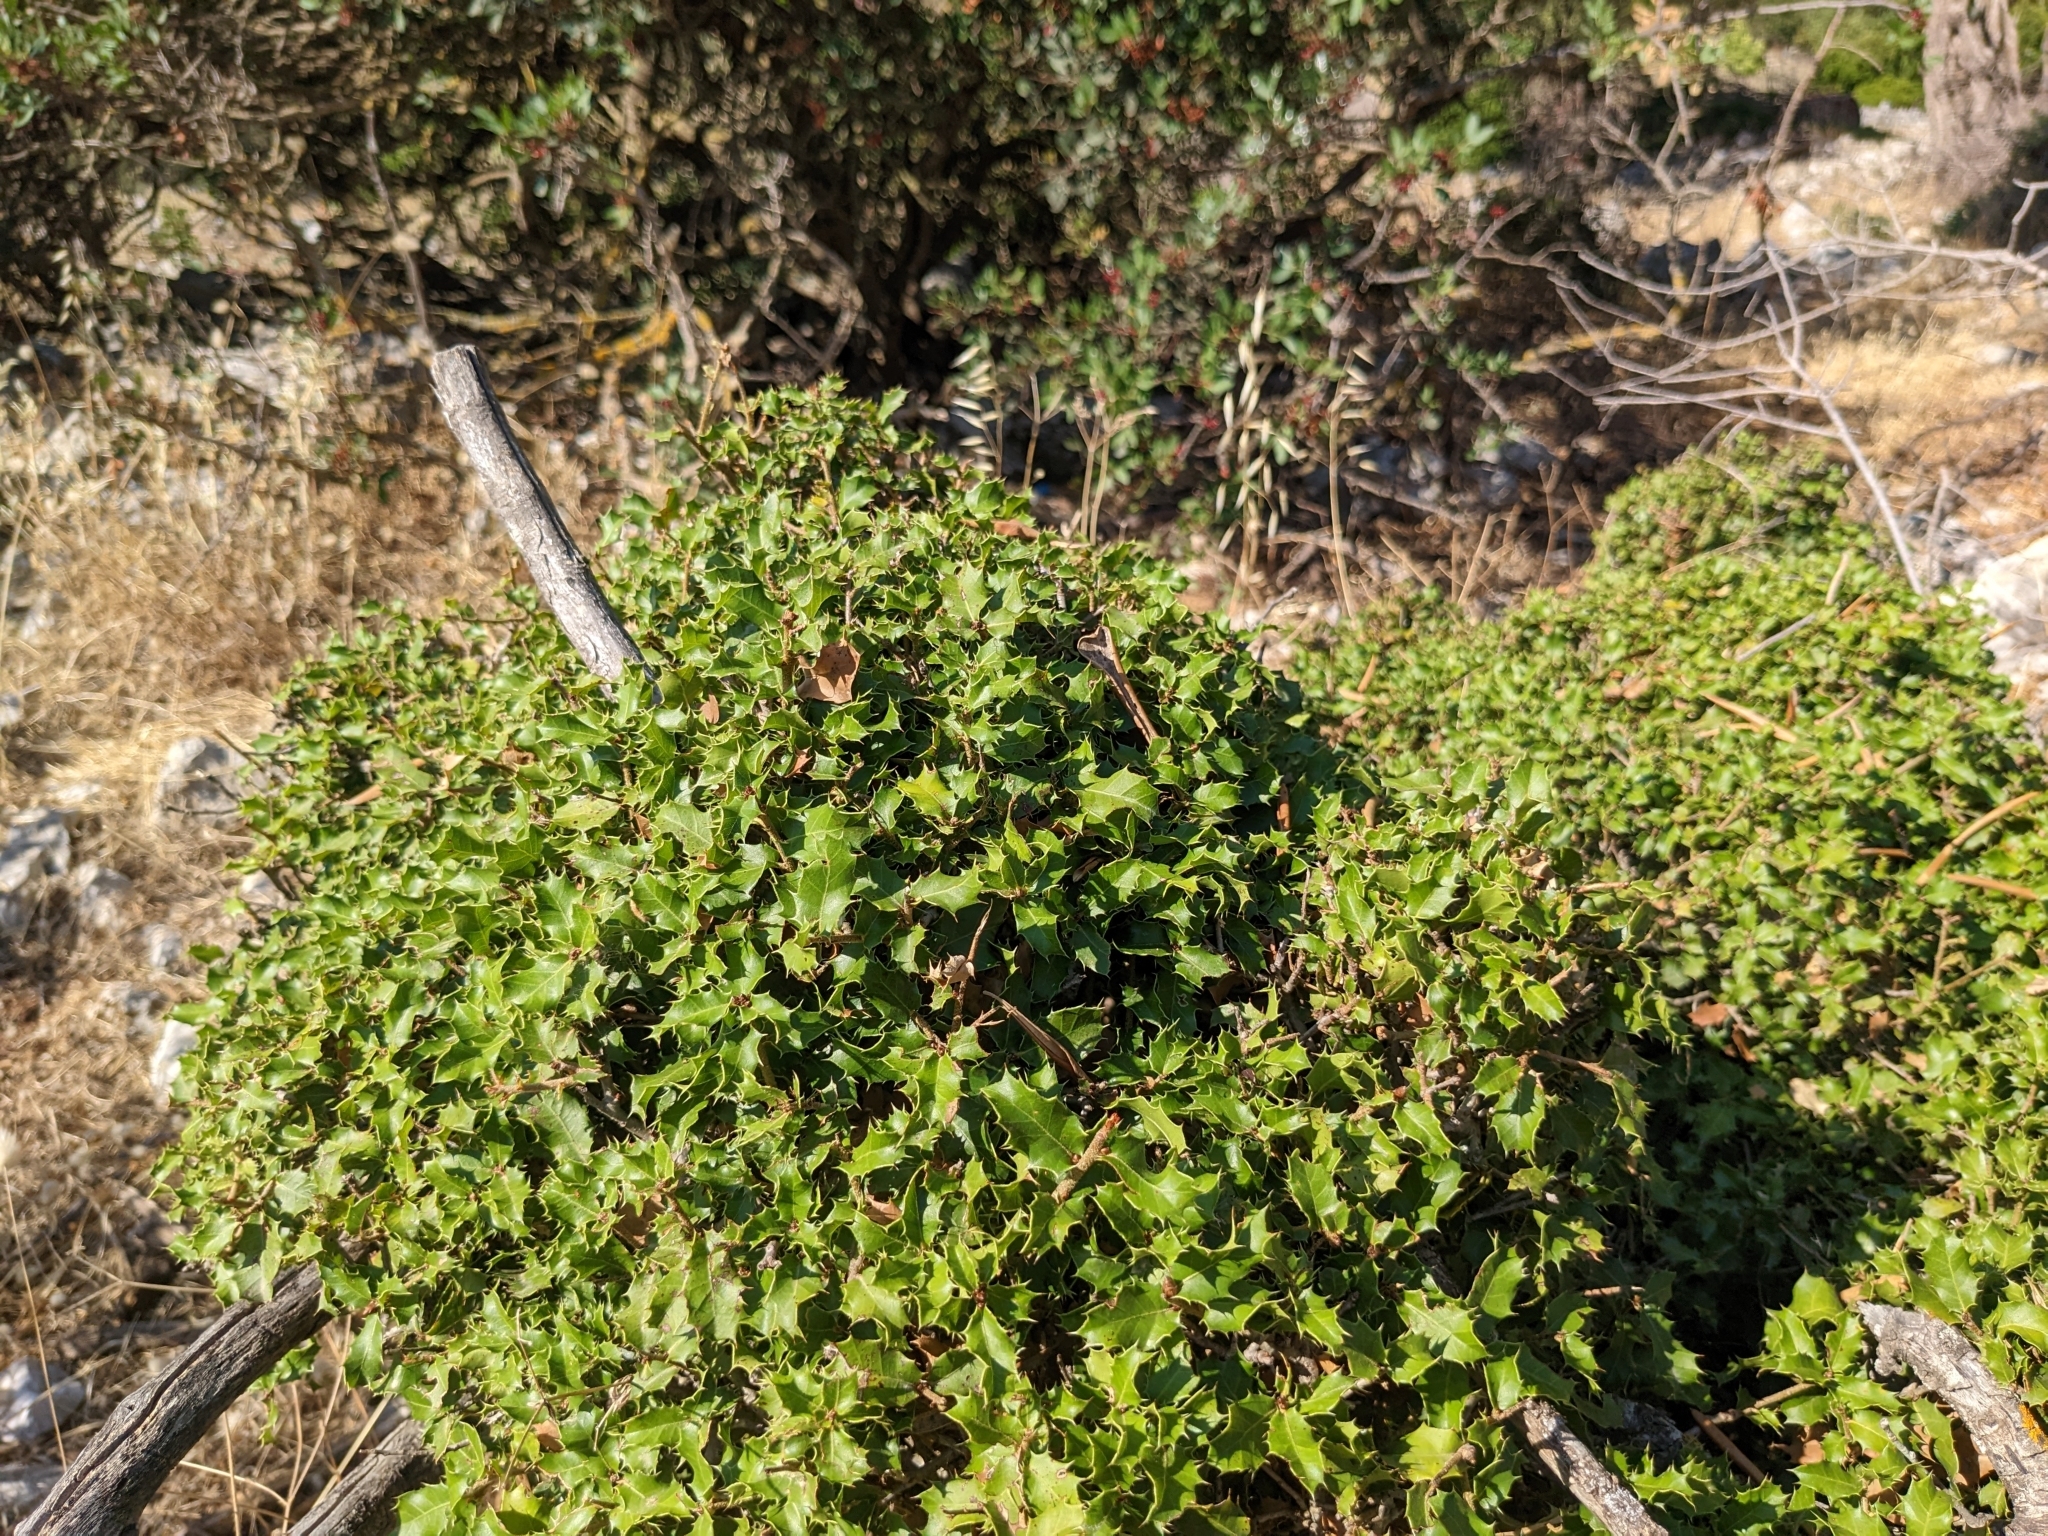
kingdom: Plantae
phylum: Tracheophyta
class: Magnoliopsida
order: Fagales
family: Fagaceae
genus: Quercus
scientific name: Quercus coccifera
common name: Kermes oak
